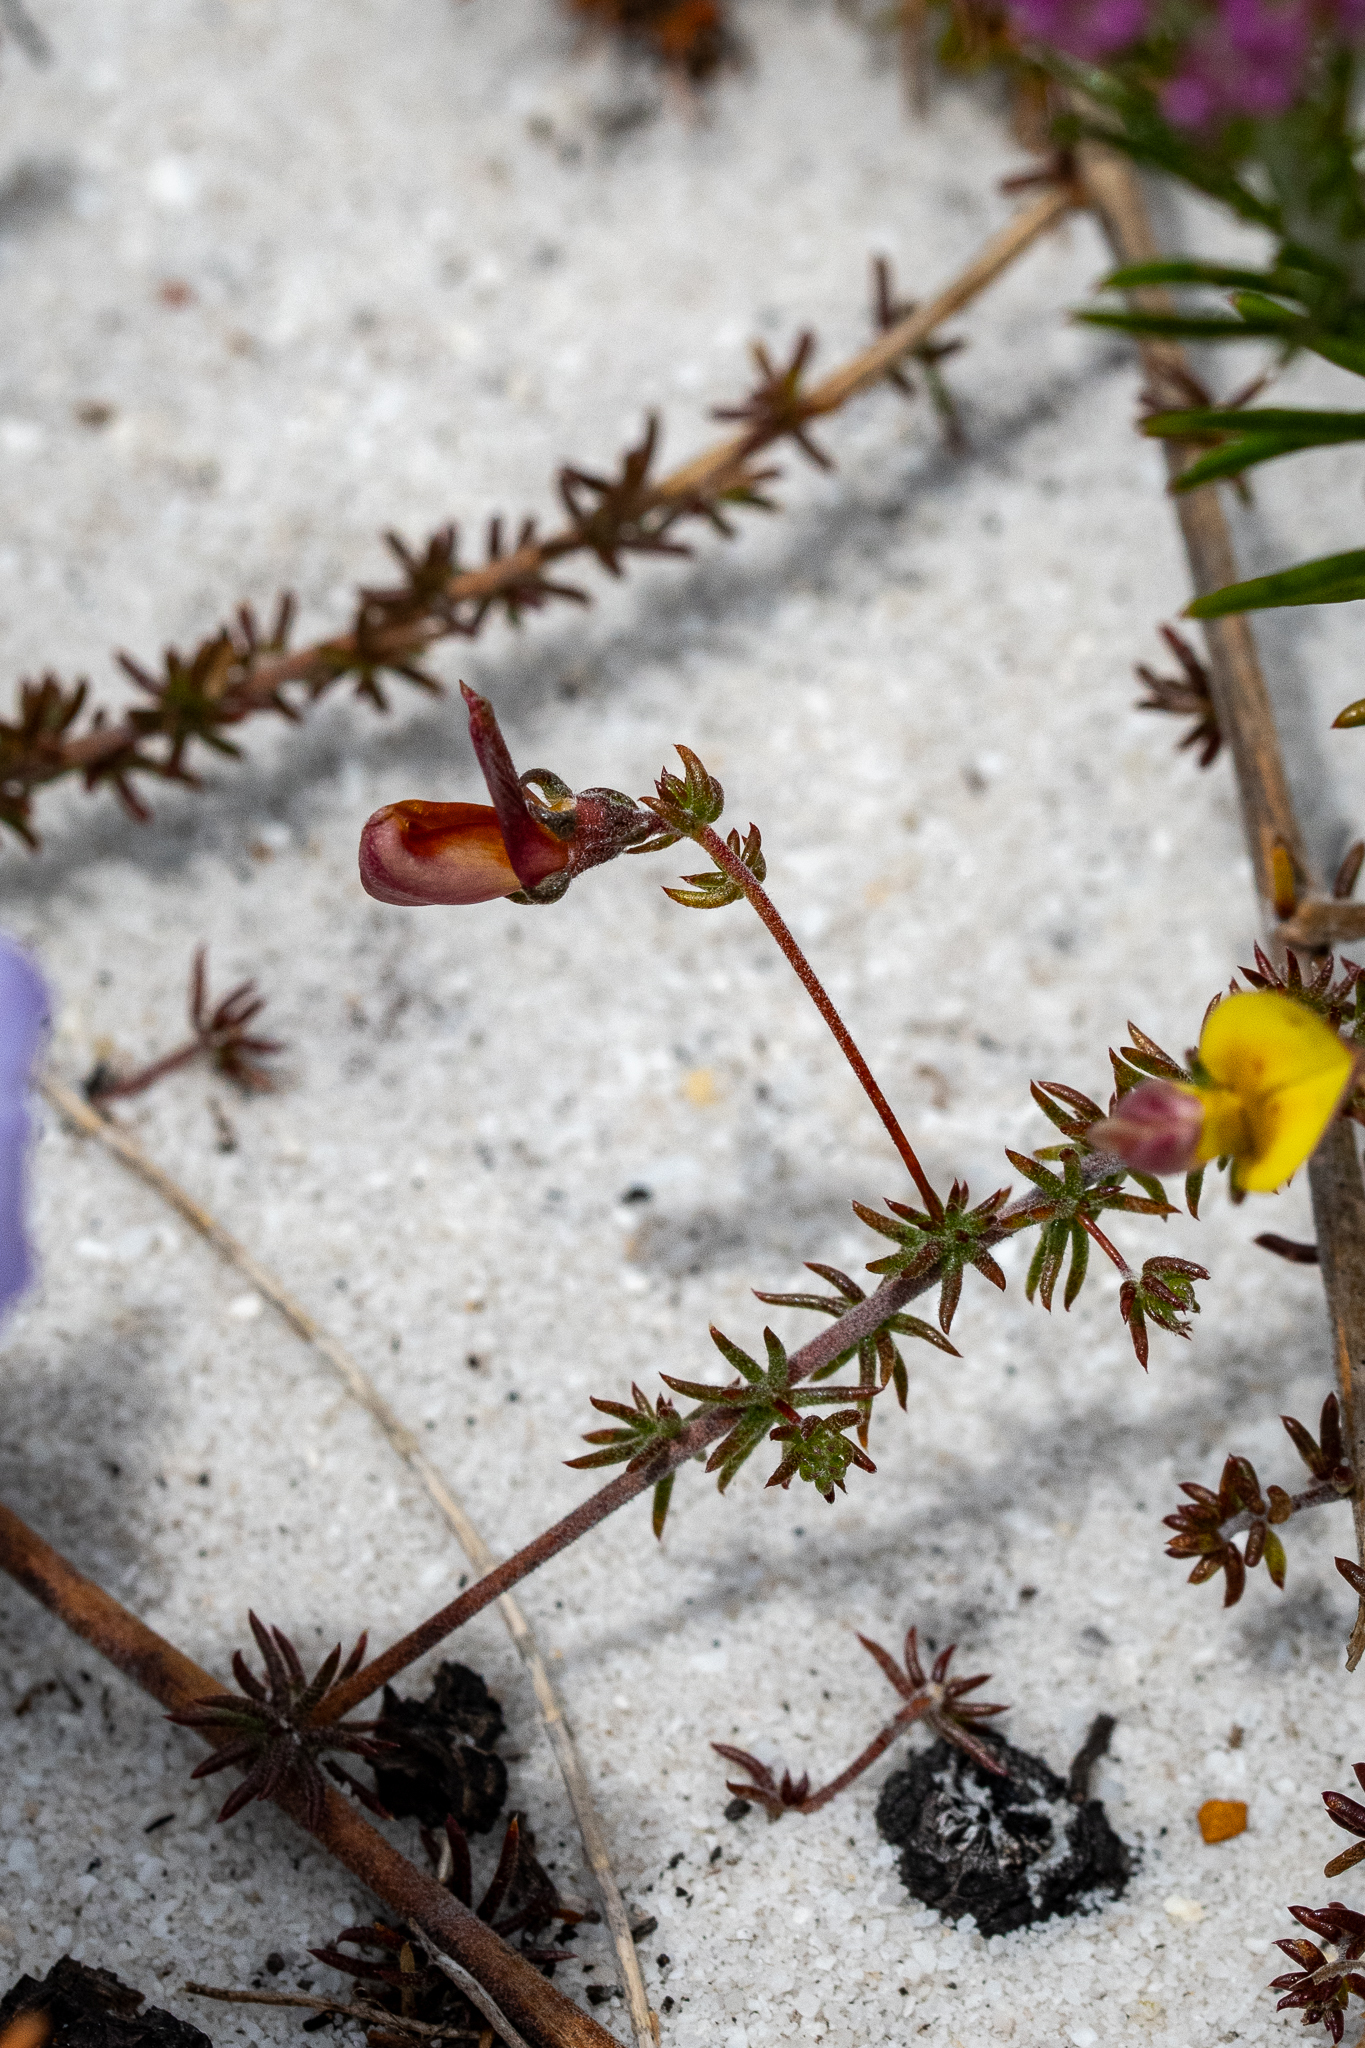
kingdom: Plantae
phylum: Tracheophyta
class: Magnoliopsida
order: Fabales
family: Fabaceae
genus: Aspalathus
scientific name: Aspalathus retroflexa
